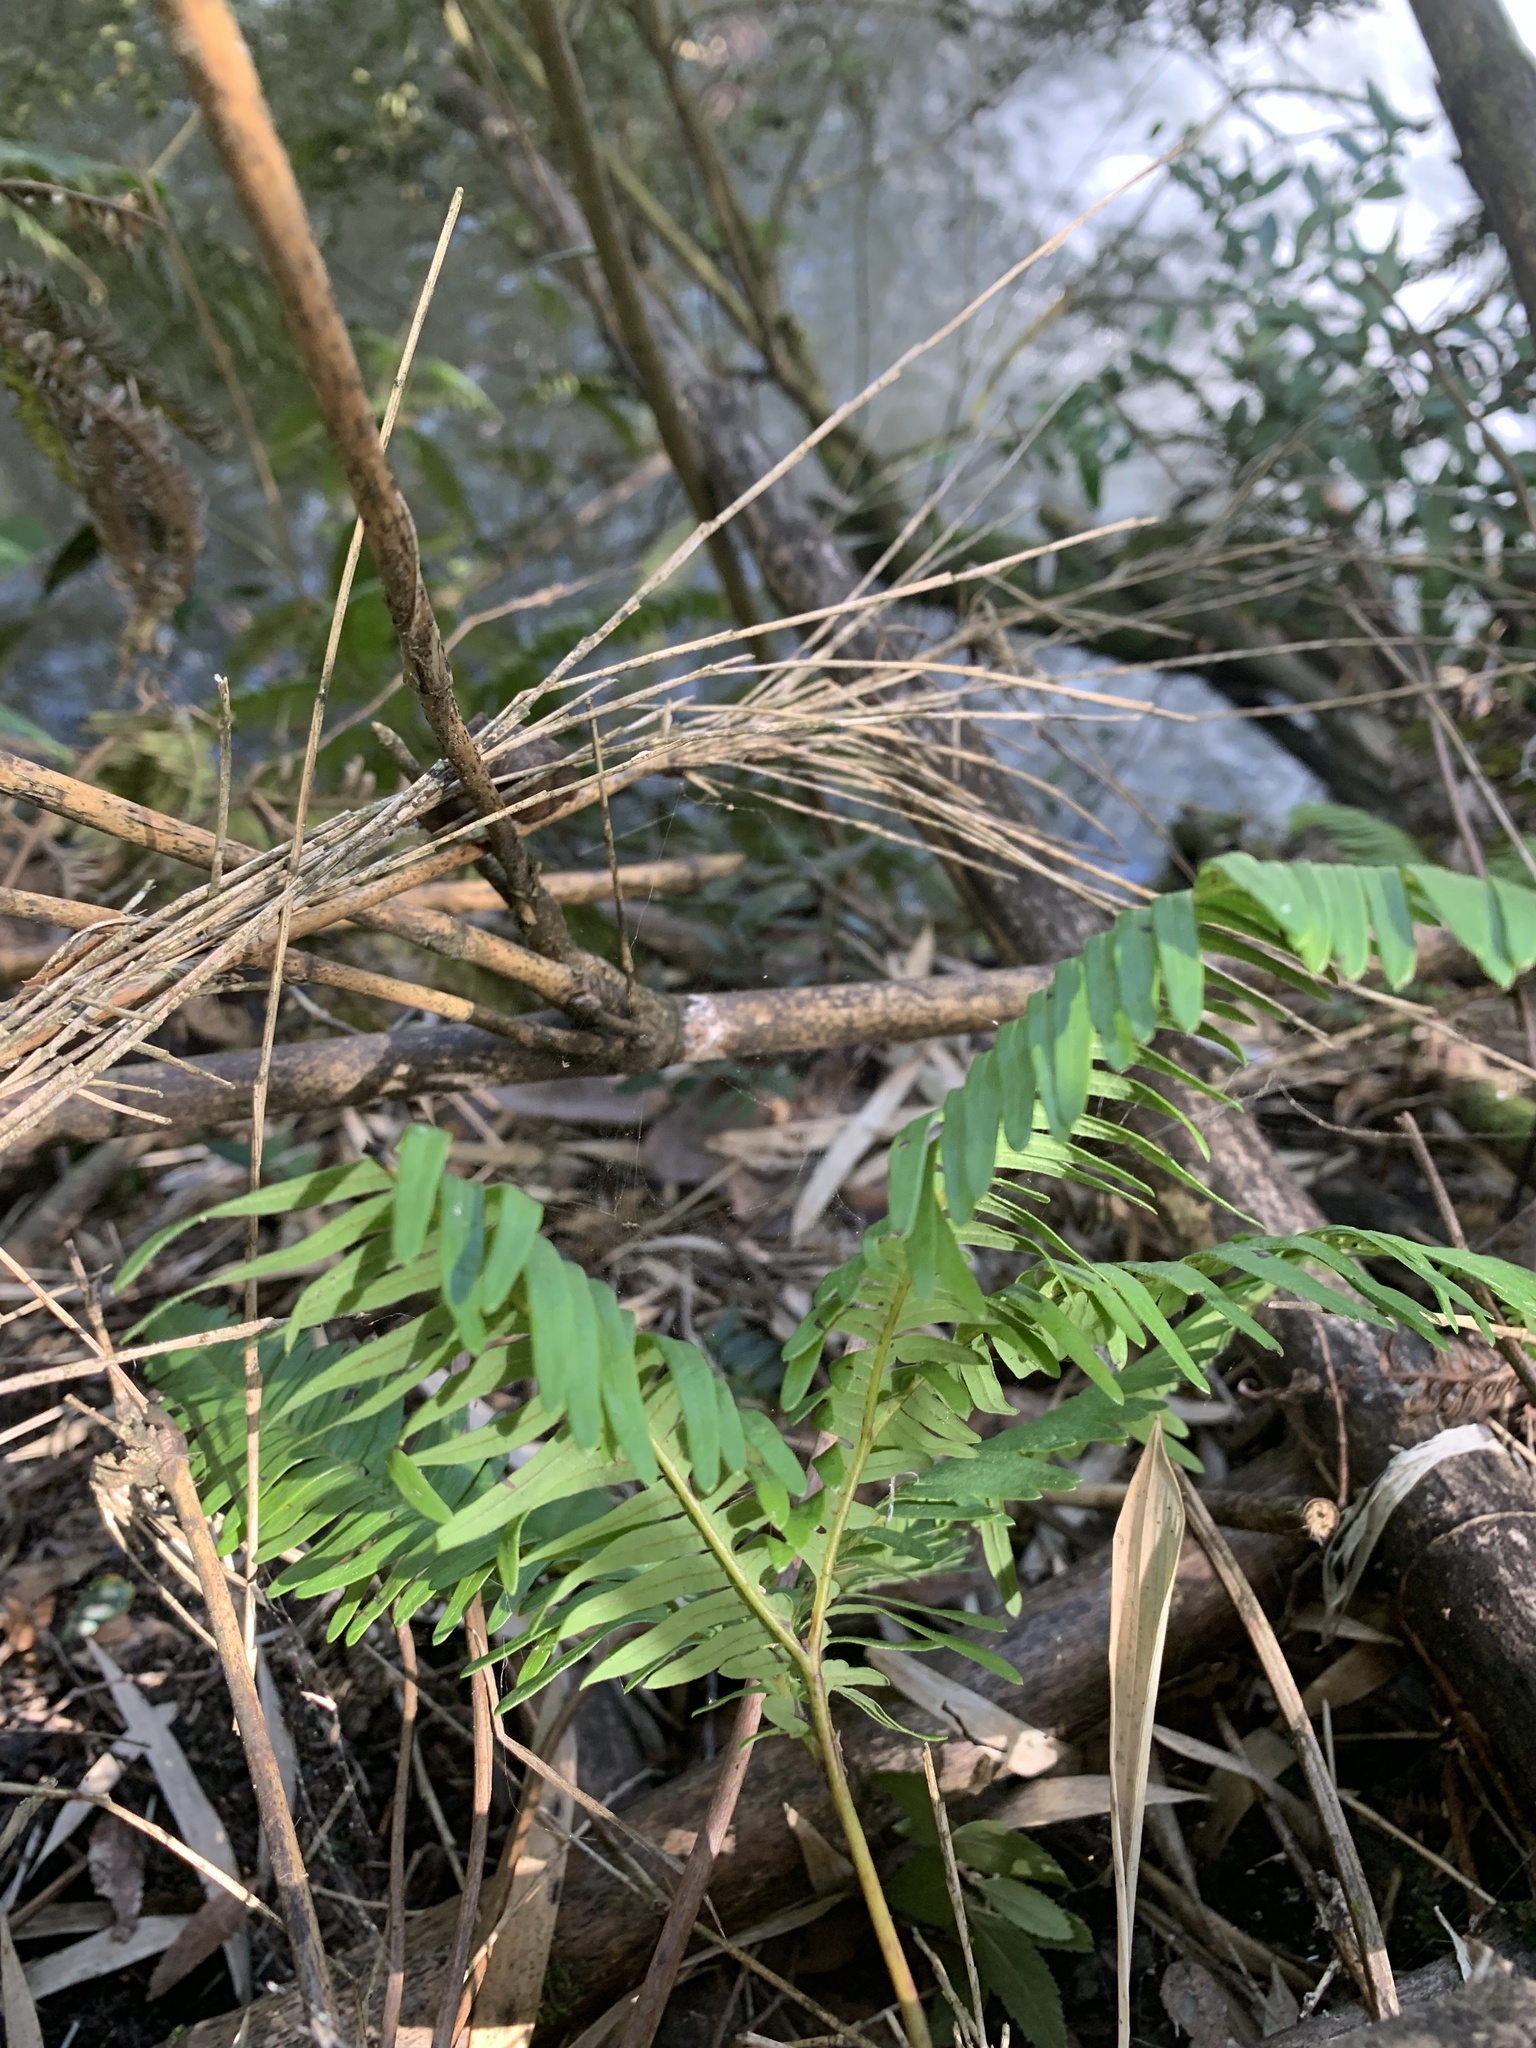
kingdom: Plantae
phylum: Tracheophyta
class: Polypodiopsida
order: Gleicheniales
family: Gleicheniaceae
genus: Sticherus
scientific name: Sticherus quadripartitus
